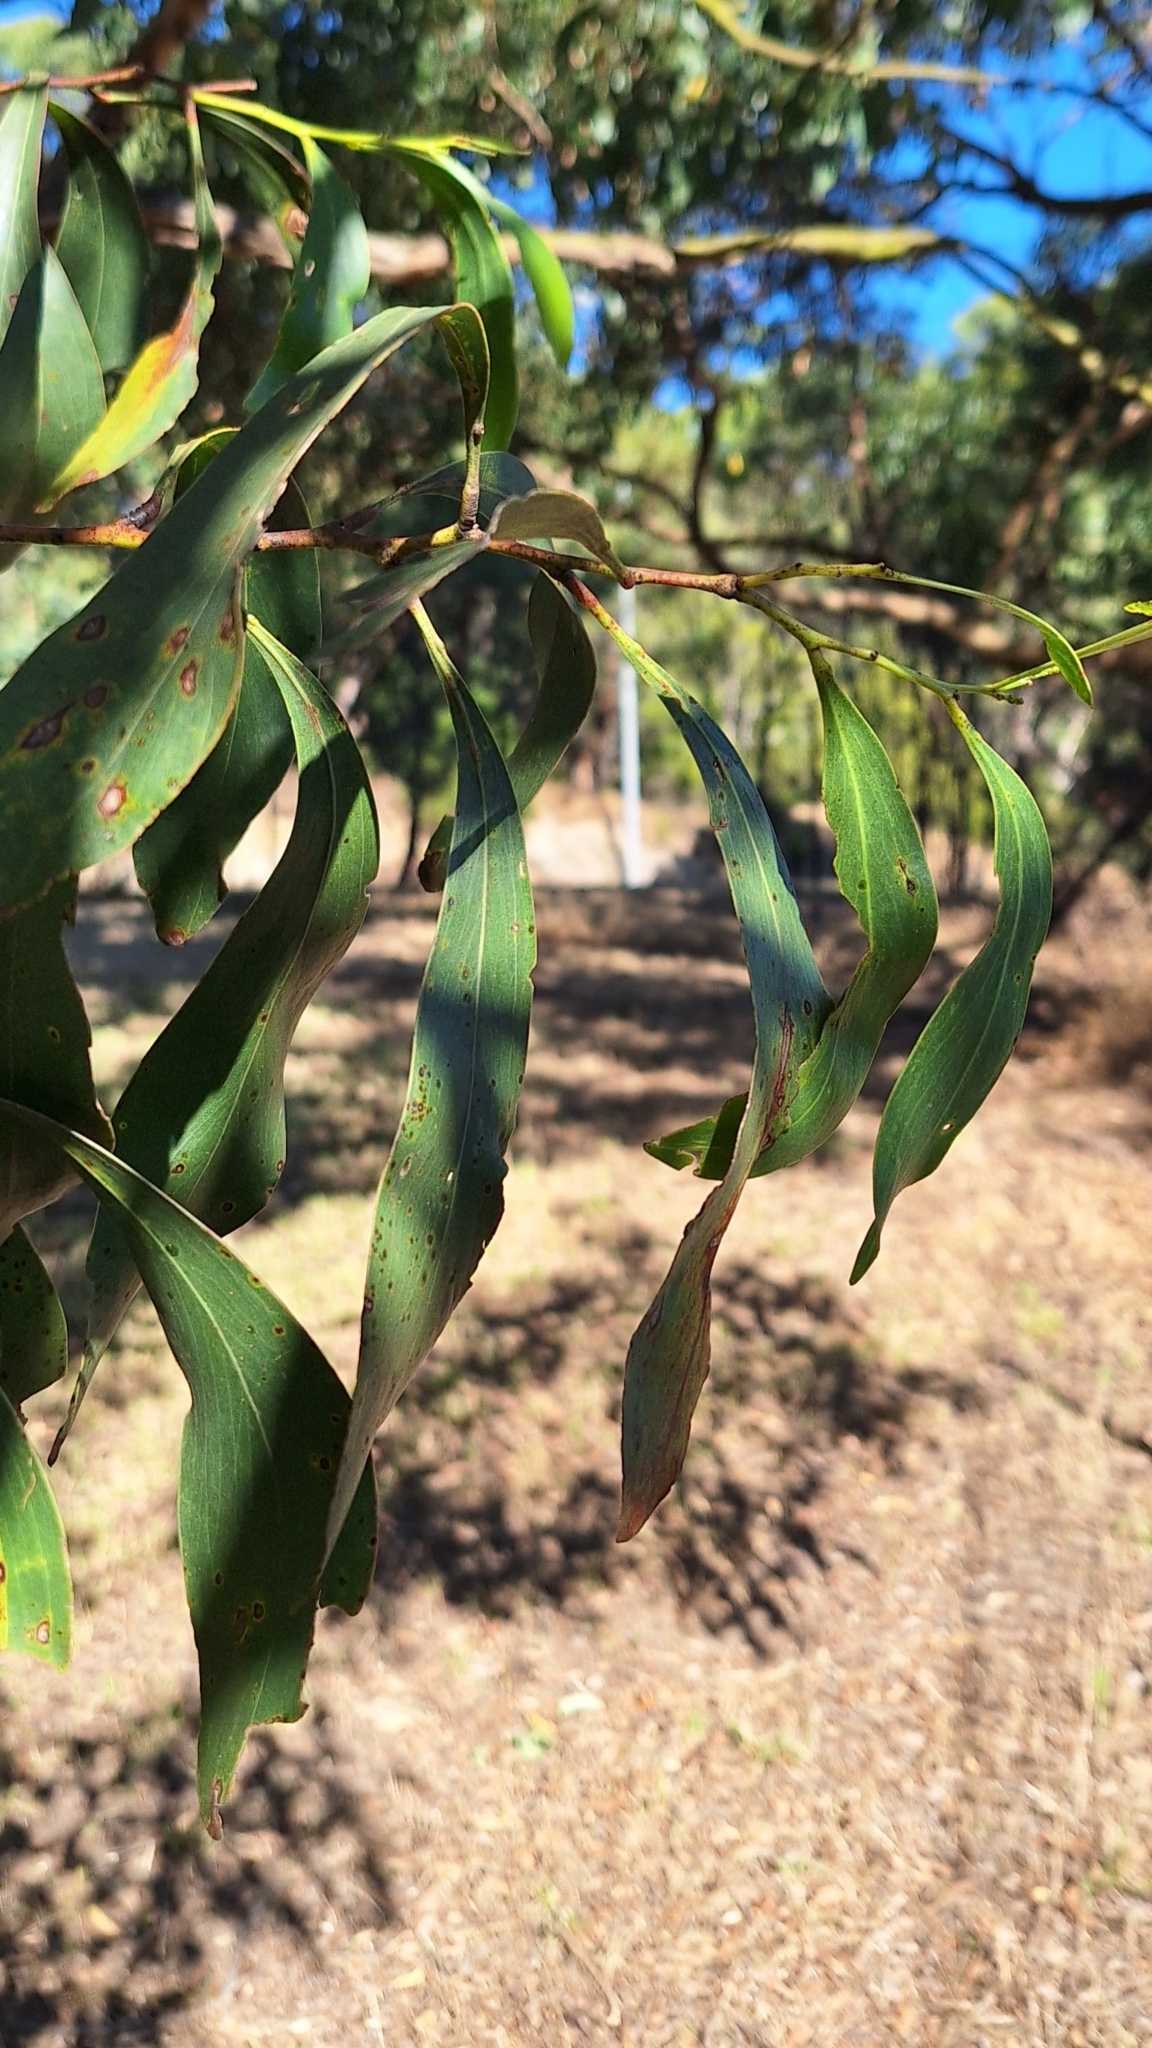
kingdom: Plantae
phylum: Tracheophyta
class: Magnoliopsida
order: Fabales
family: Fabaceae
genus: Acacia
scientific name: Acacia pycnantha
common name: Golden wattle
